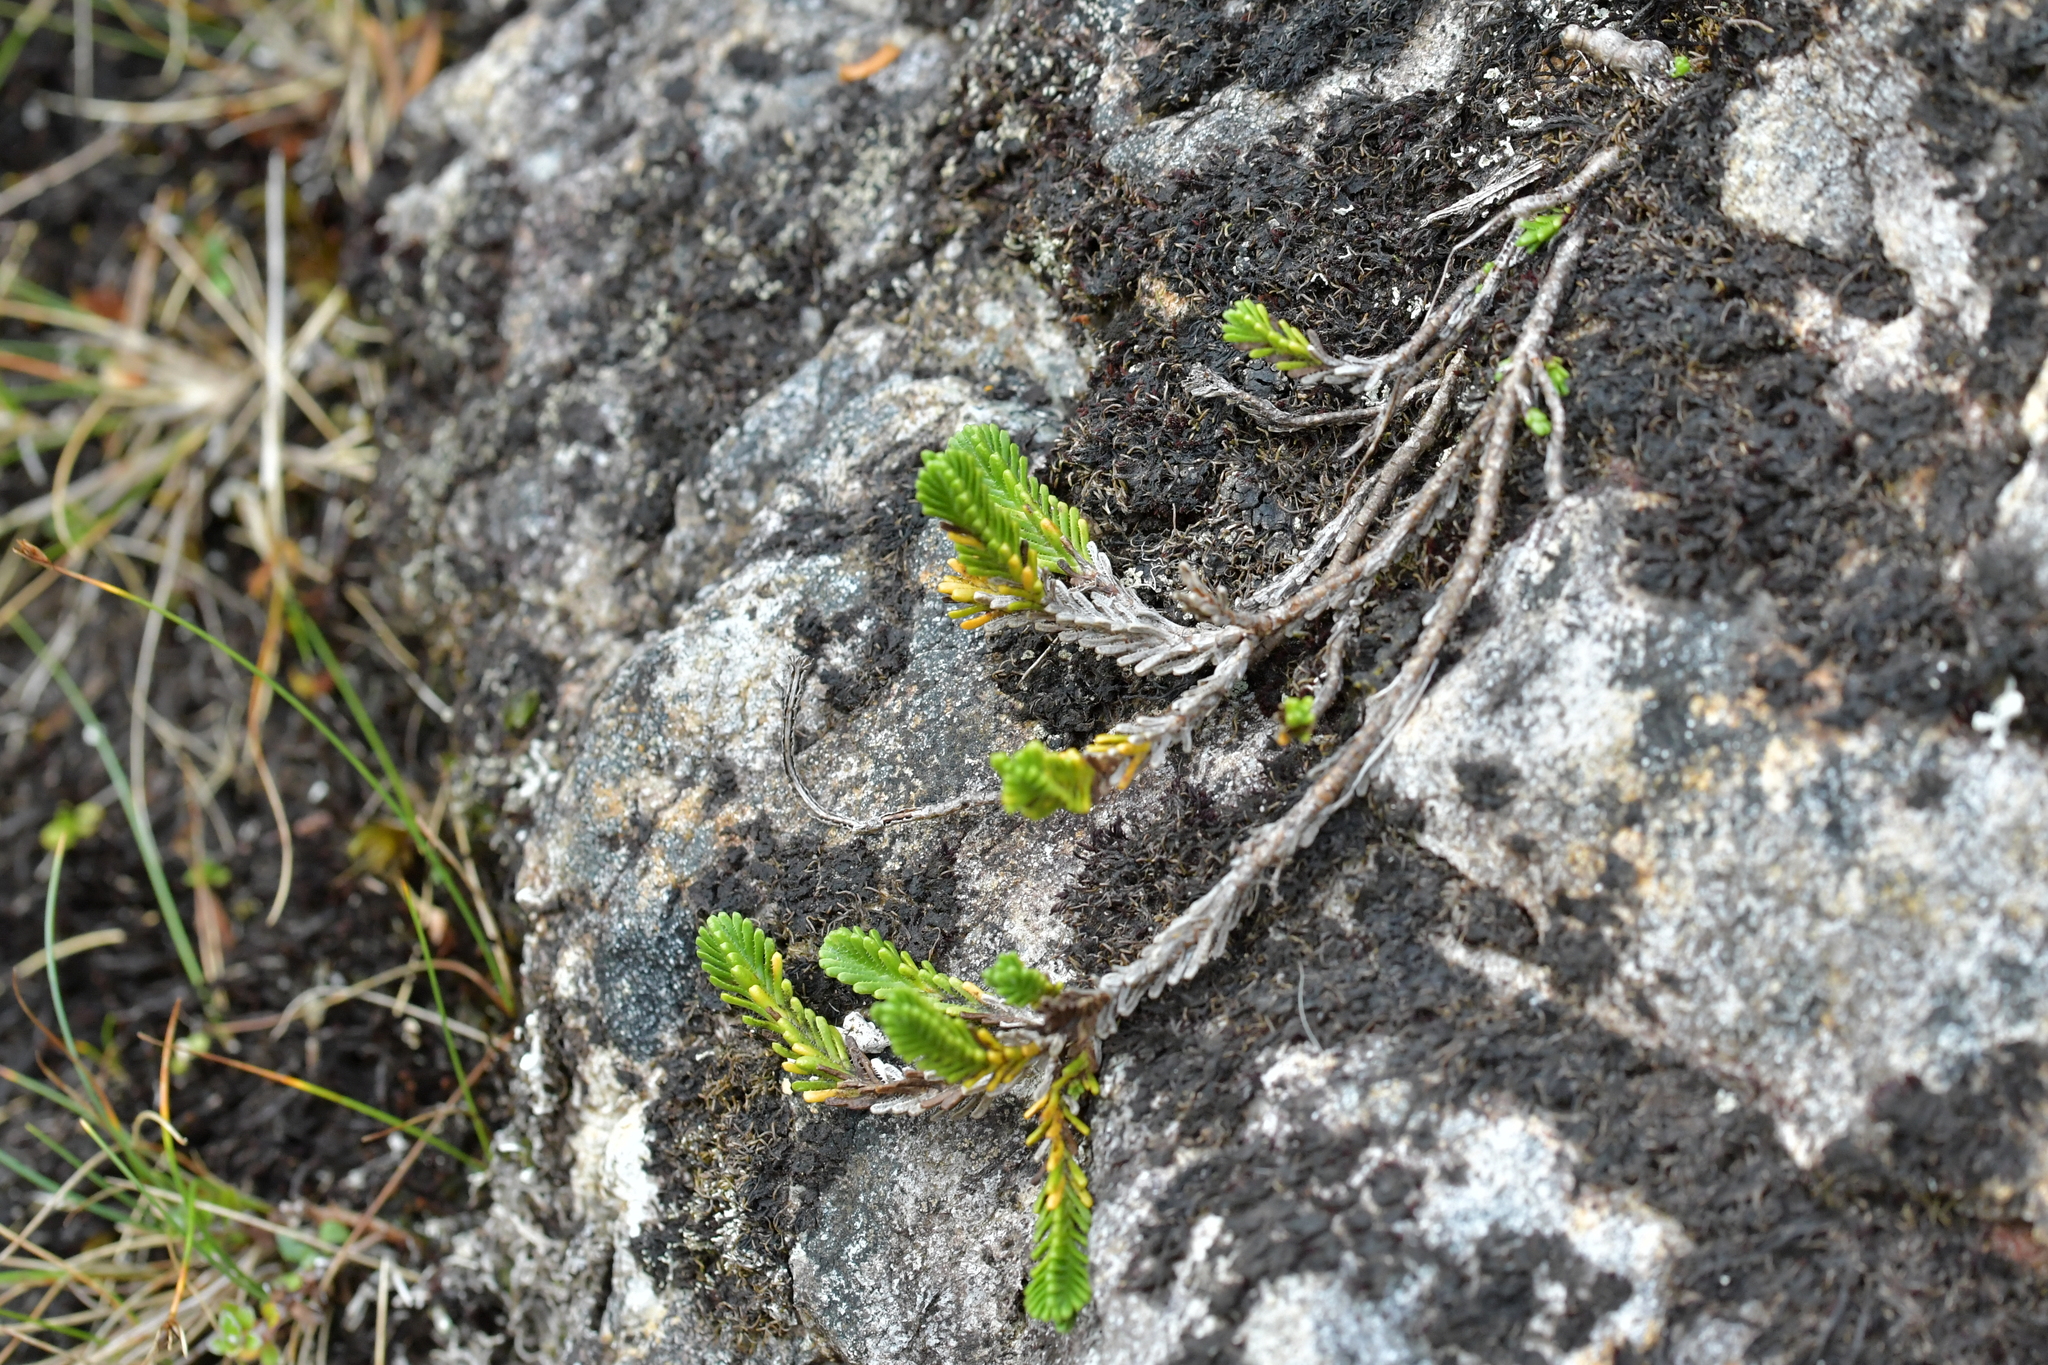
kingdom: Plantae
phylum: Tracheophyta
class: Magnoliopsida
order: Lamiales
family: Plantaginaceae
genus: Veronica
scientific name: Veronica hookeri
